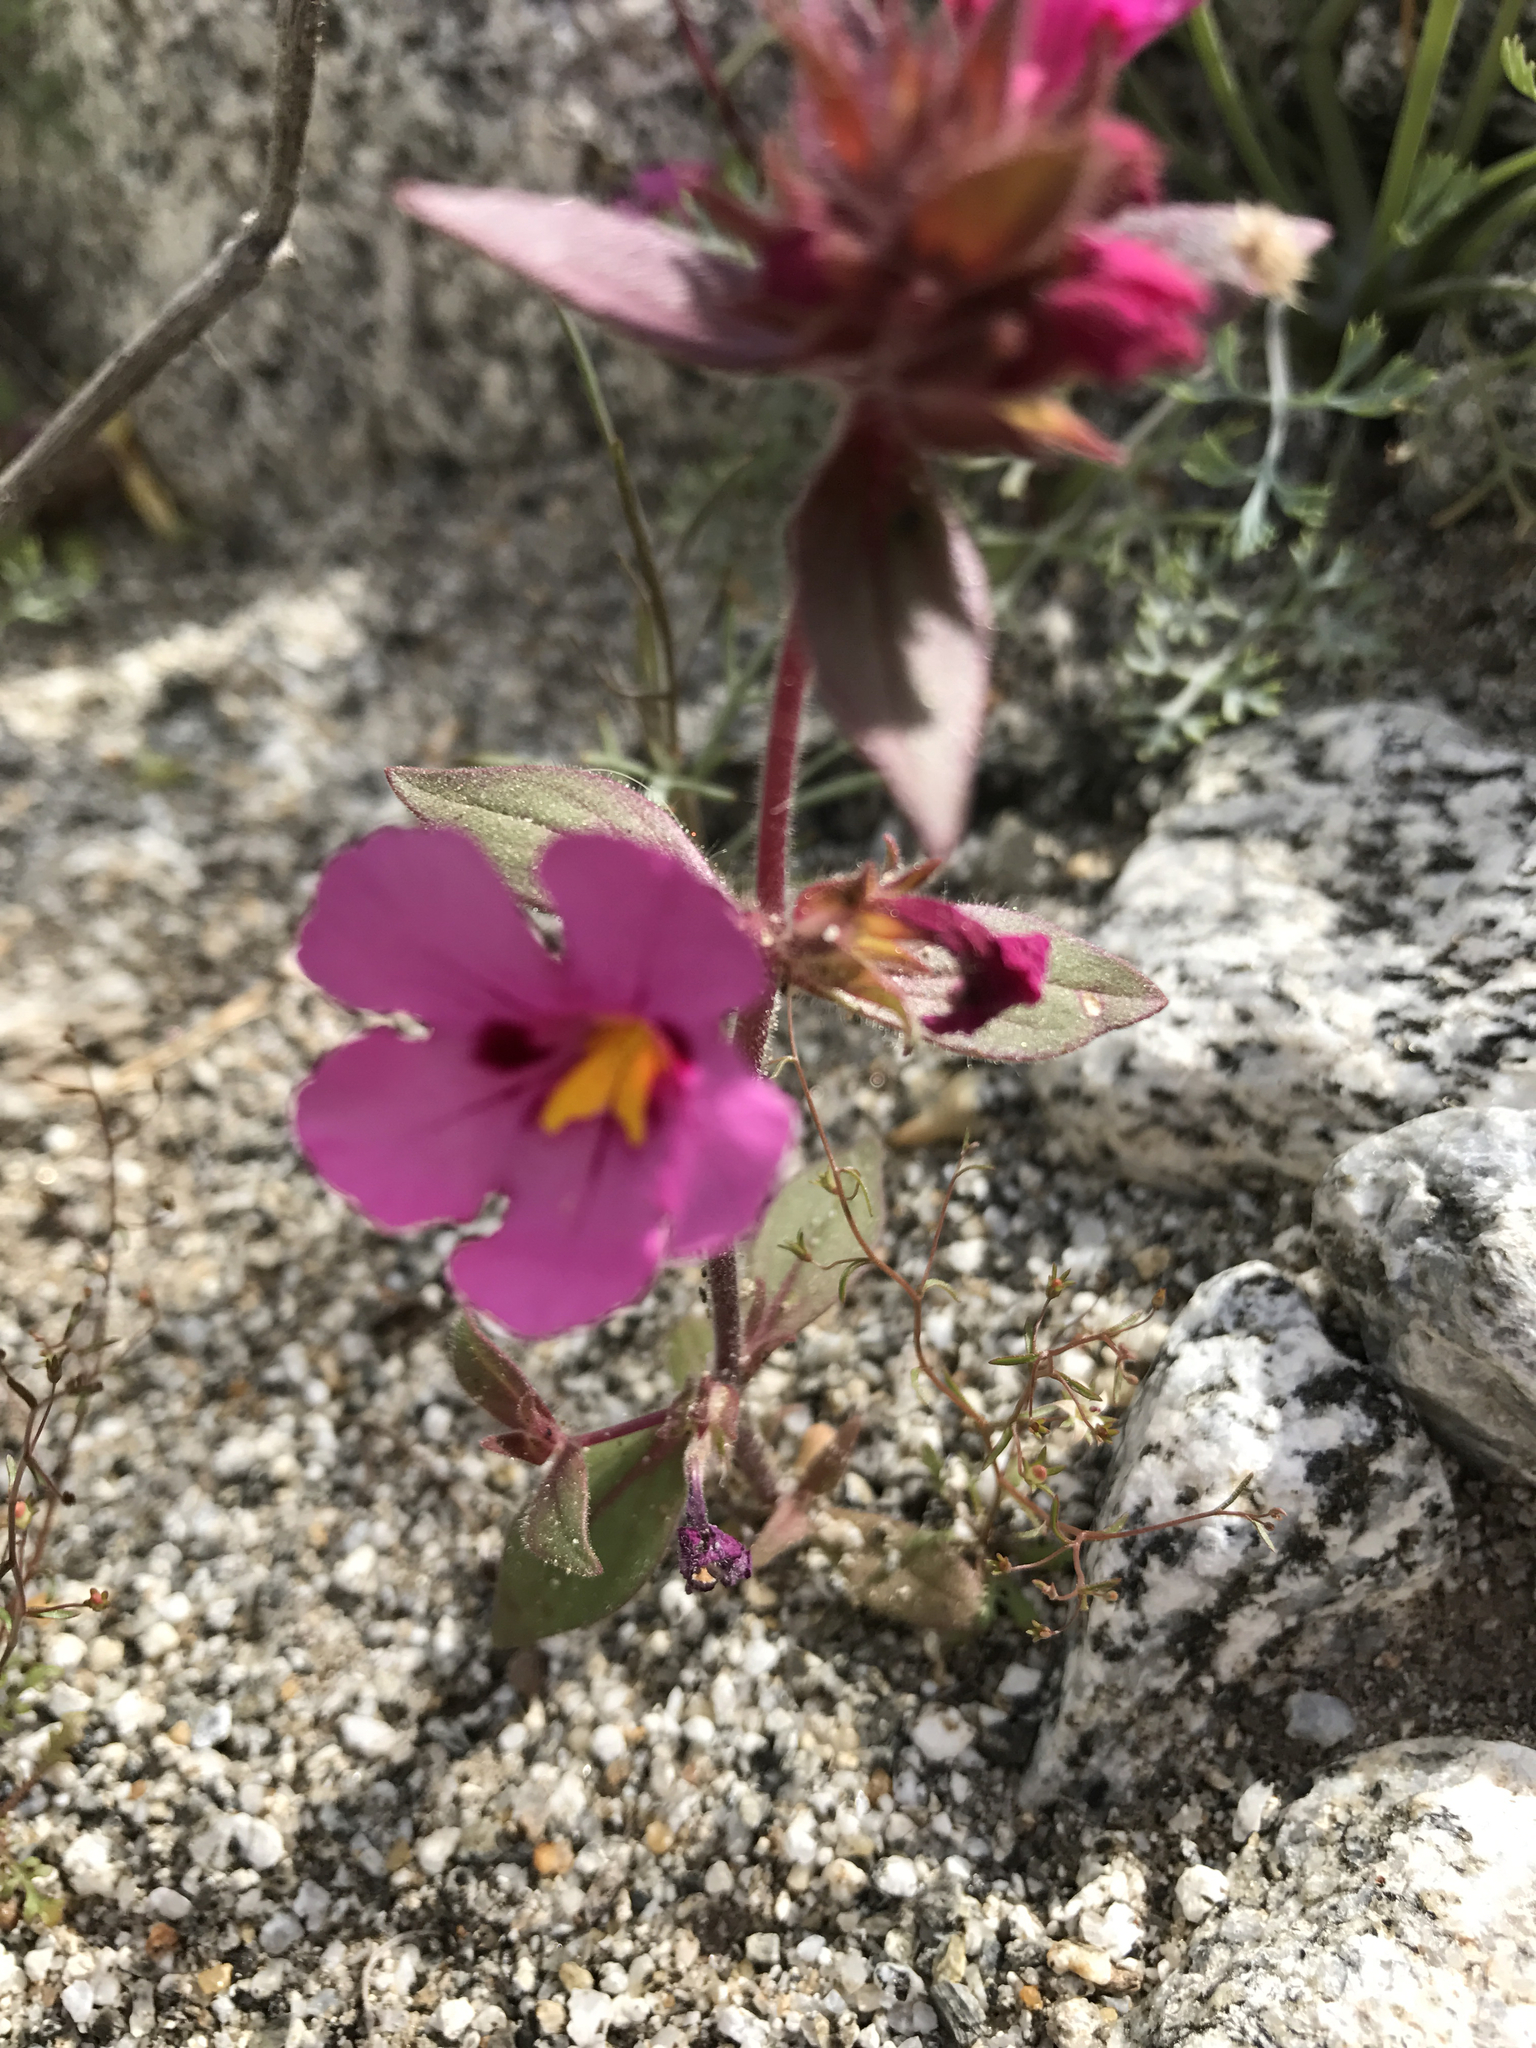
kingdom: Plantae
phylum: Tracheophyta
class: Magnoliopsida
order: Lamiales
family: Phrymaceae
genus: Diplacus
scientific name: Diplacus bigelovii
